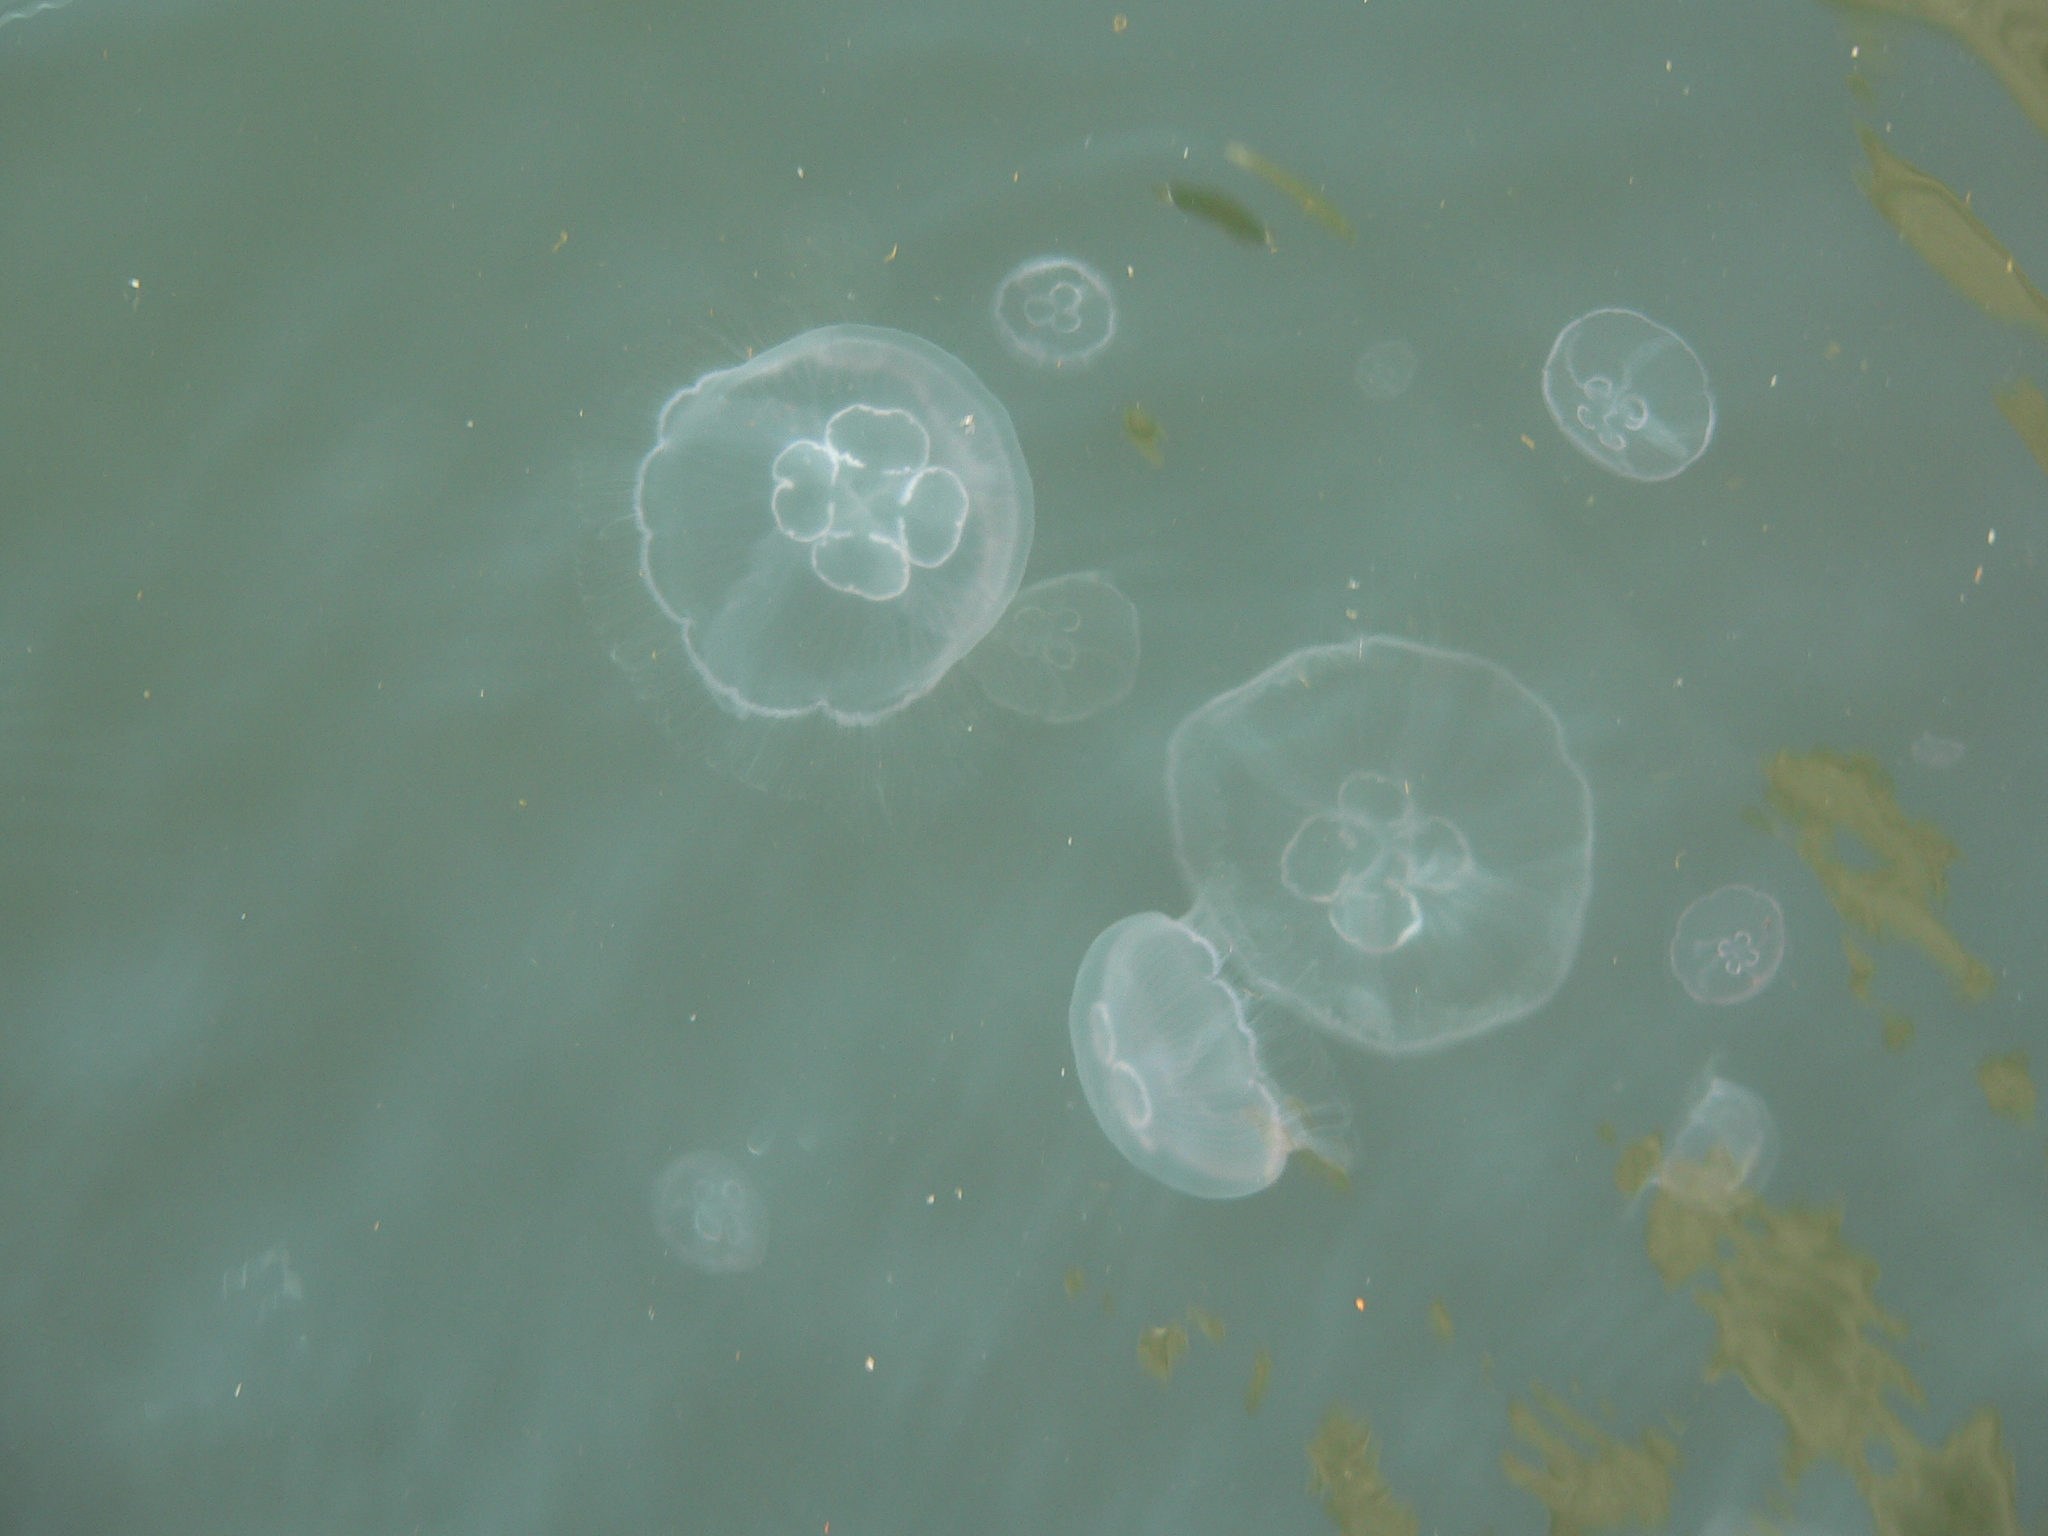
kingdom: Animalia
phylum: Cnidaria
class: Scyphozoa
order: Semaeostomeae
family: Ulmaridae
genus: Aurelia
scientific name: Aurelia aurita
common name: Moon jellyfish
